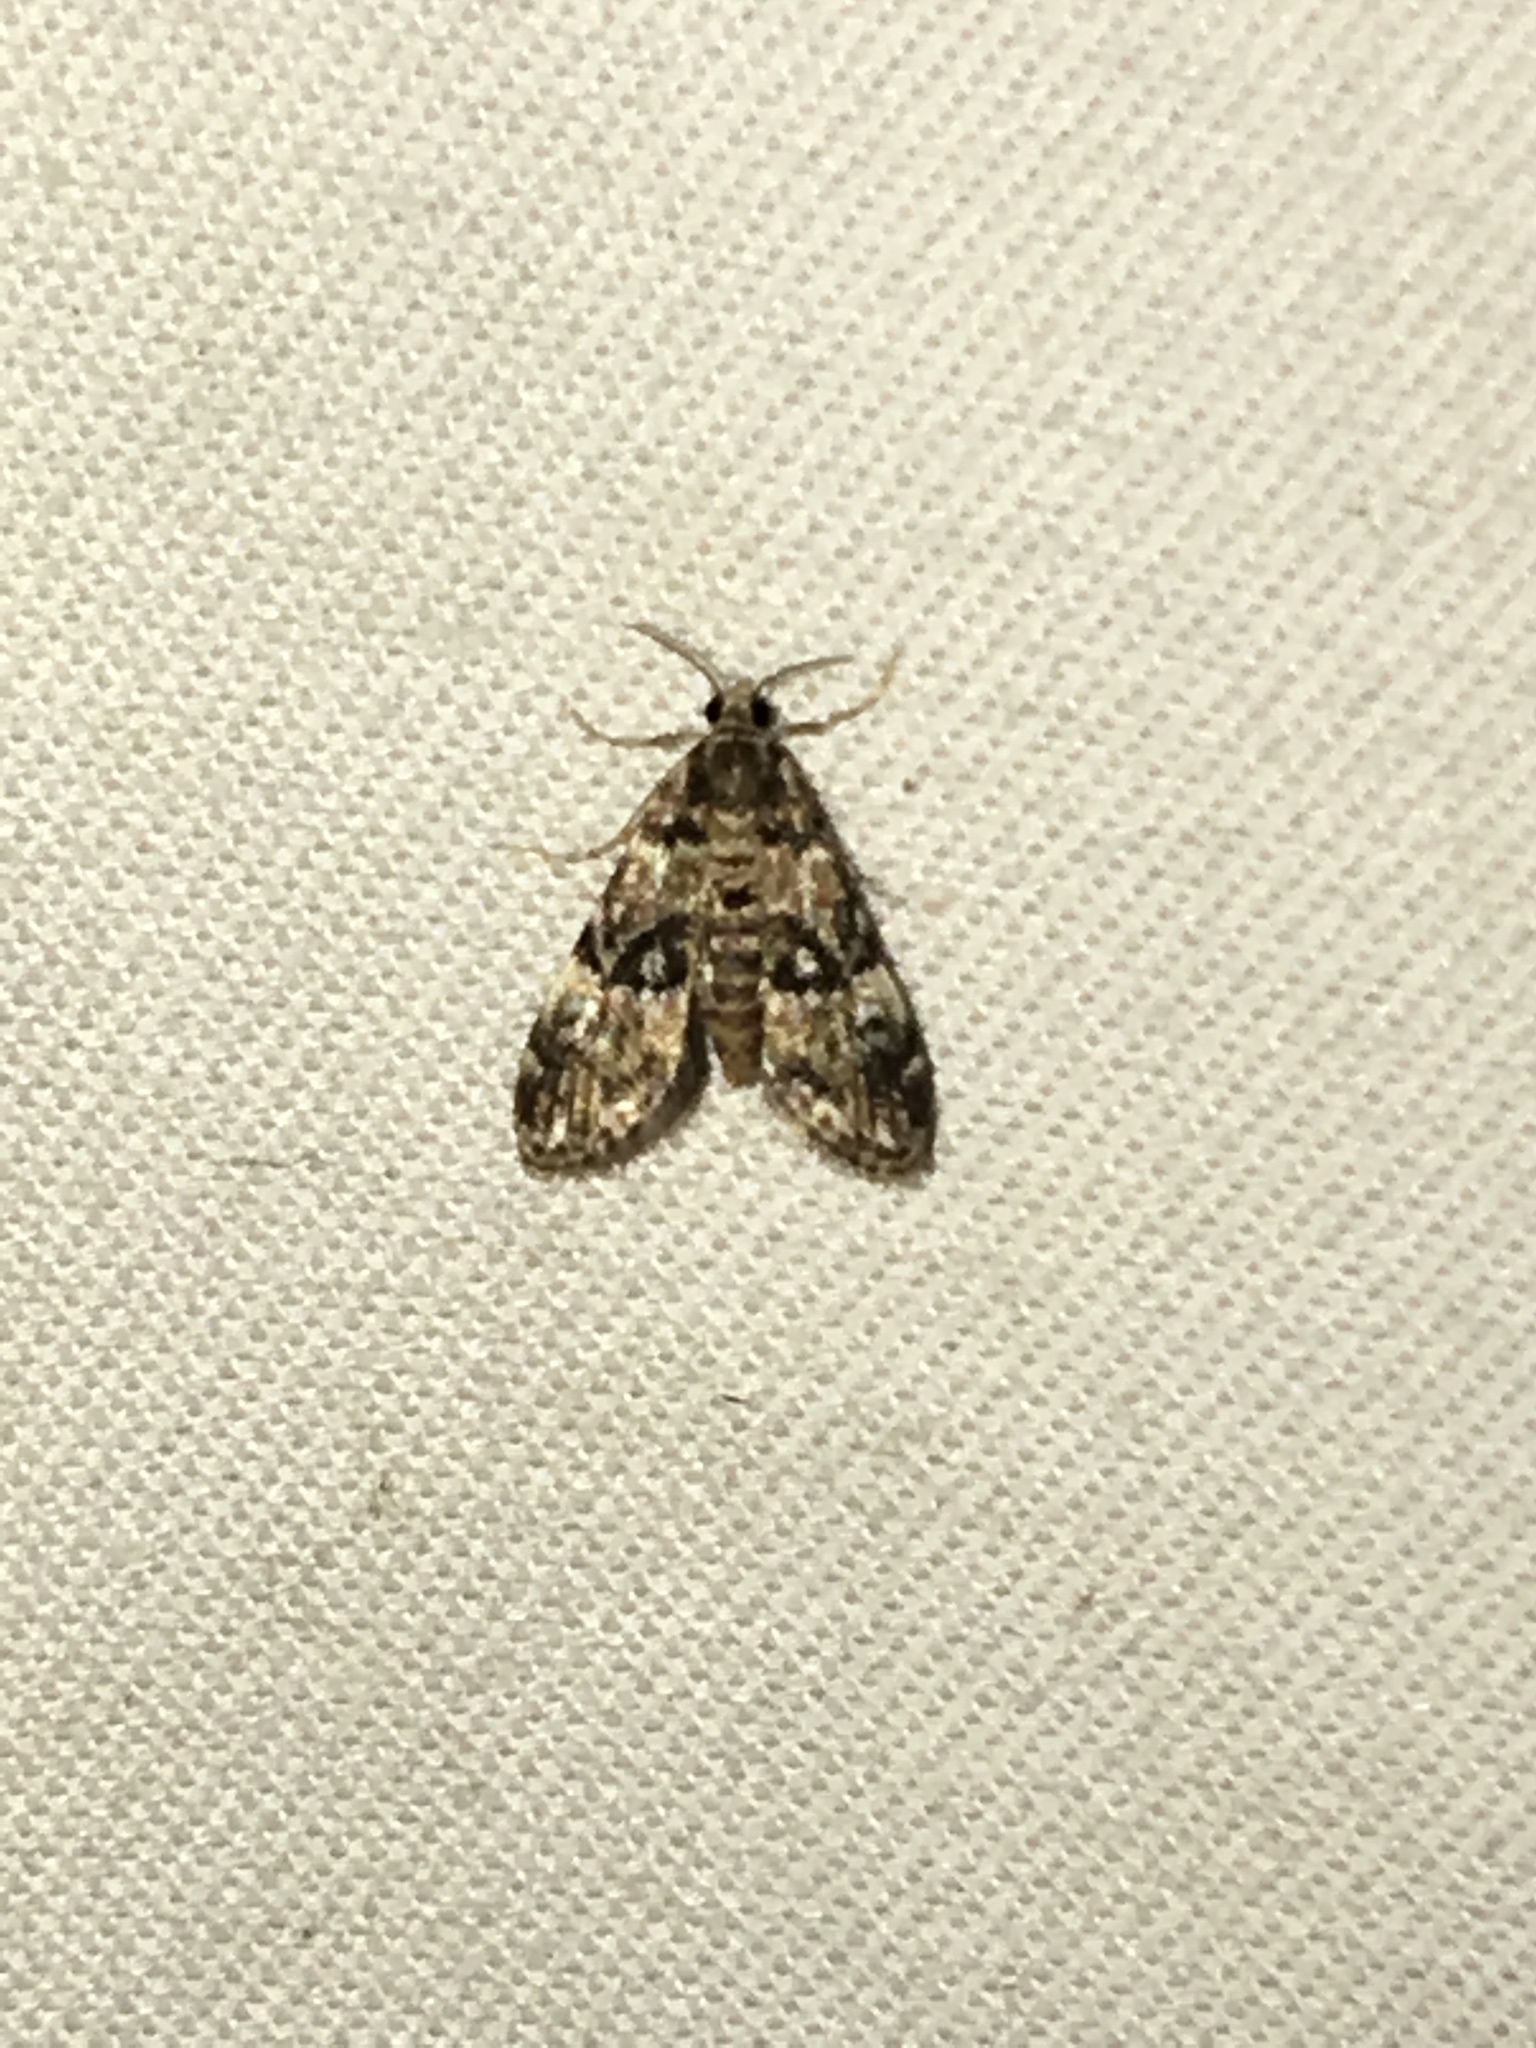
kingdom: Animalia
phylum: Arthropoda
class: Insecta
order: Lepidoptera
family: Crambidae
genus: Elophila
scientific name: Elophila obliteralis
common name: Waterlily leafcutter moth
